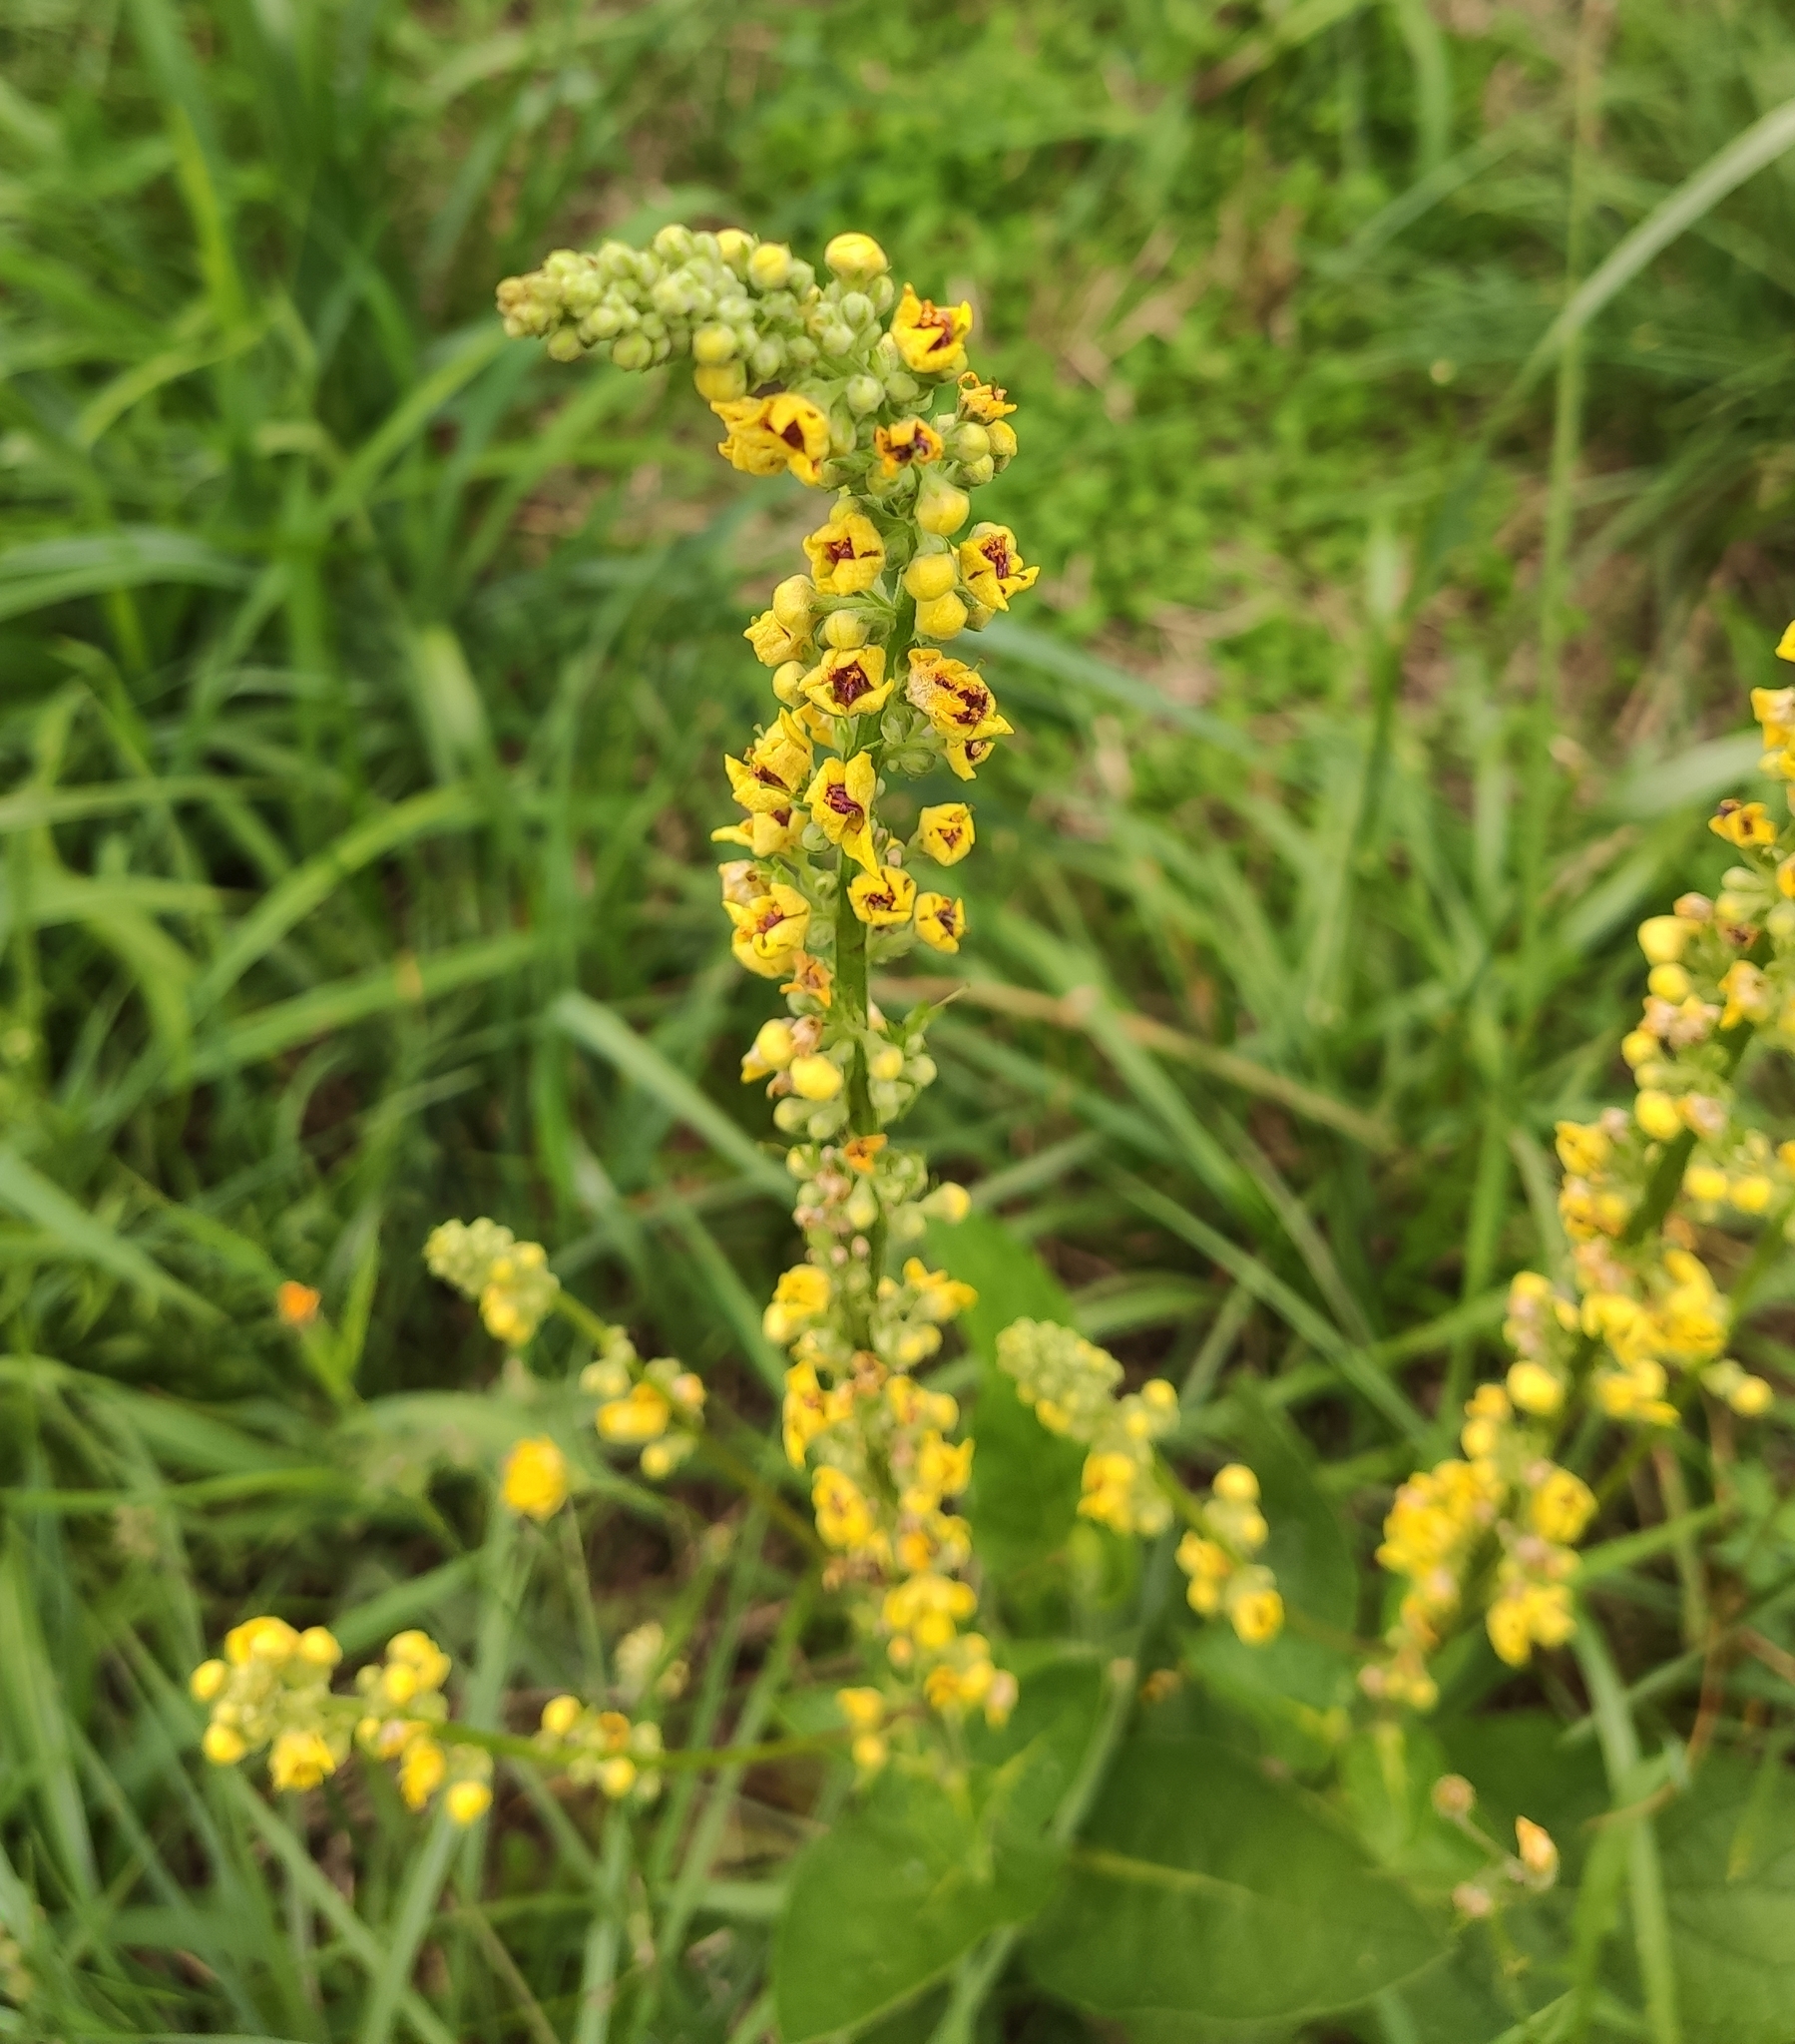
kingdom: Plantae
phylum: Tracheophyta
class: Magnoliopsida
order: Lamiales
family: Scrophulariaceae
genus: Verbascum
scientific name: Verbascum nigrum
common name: Dark mullein
